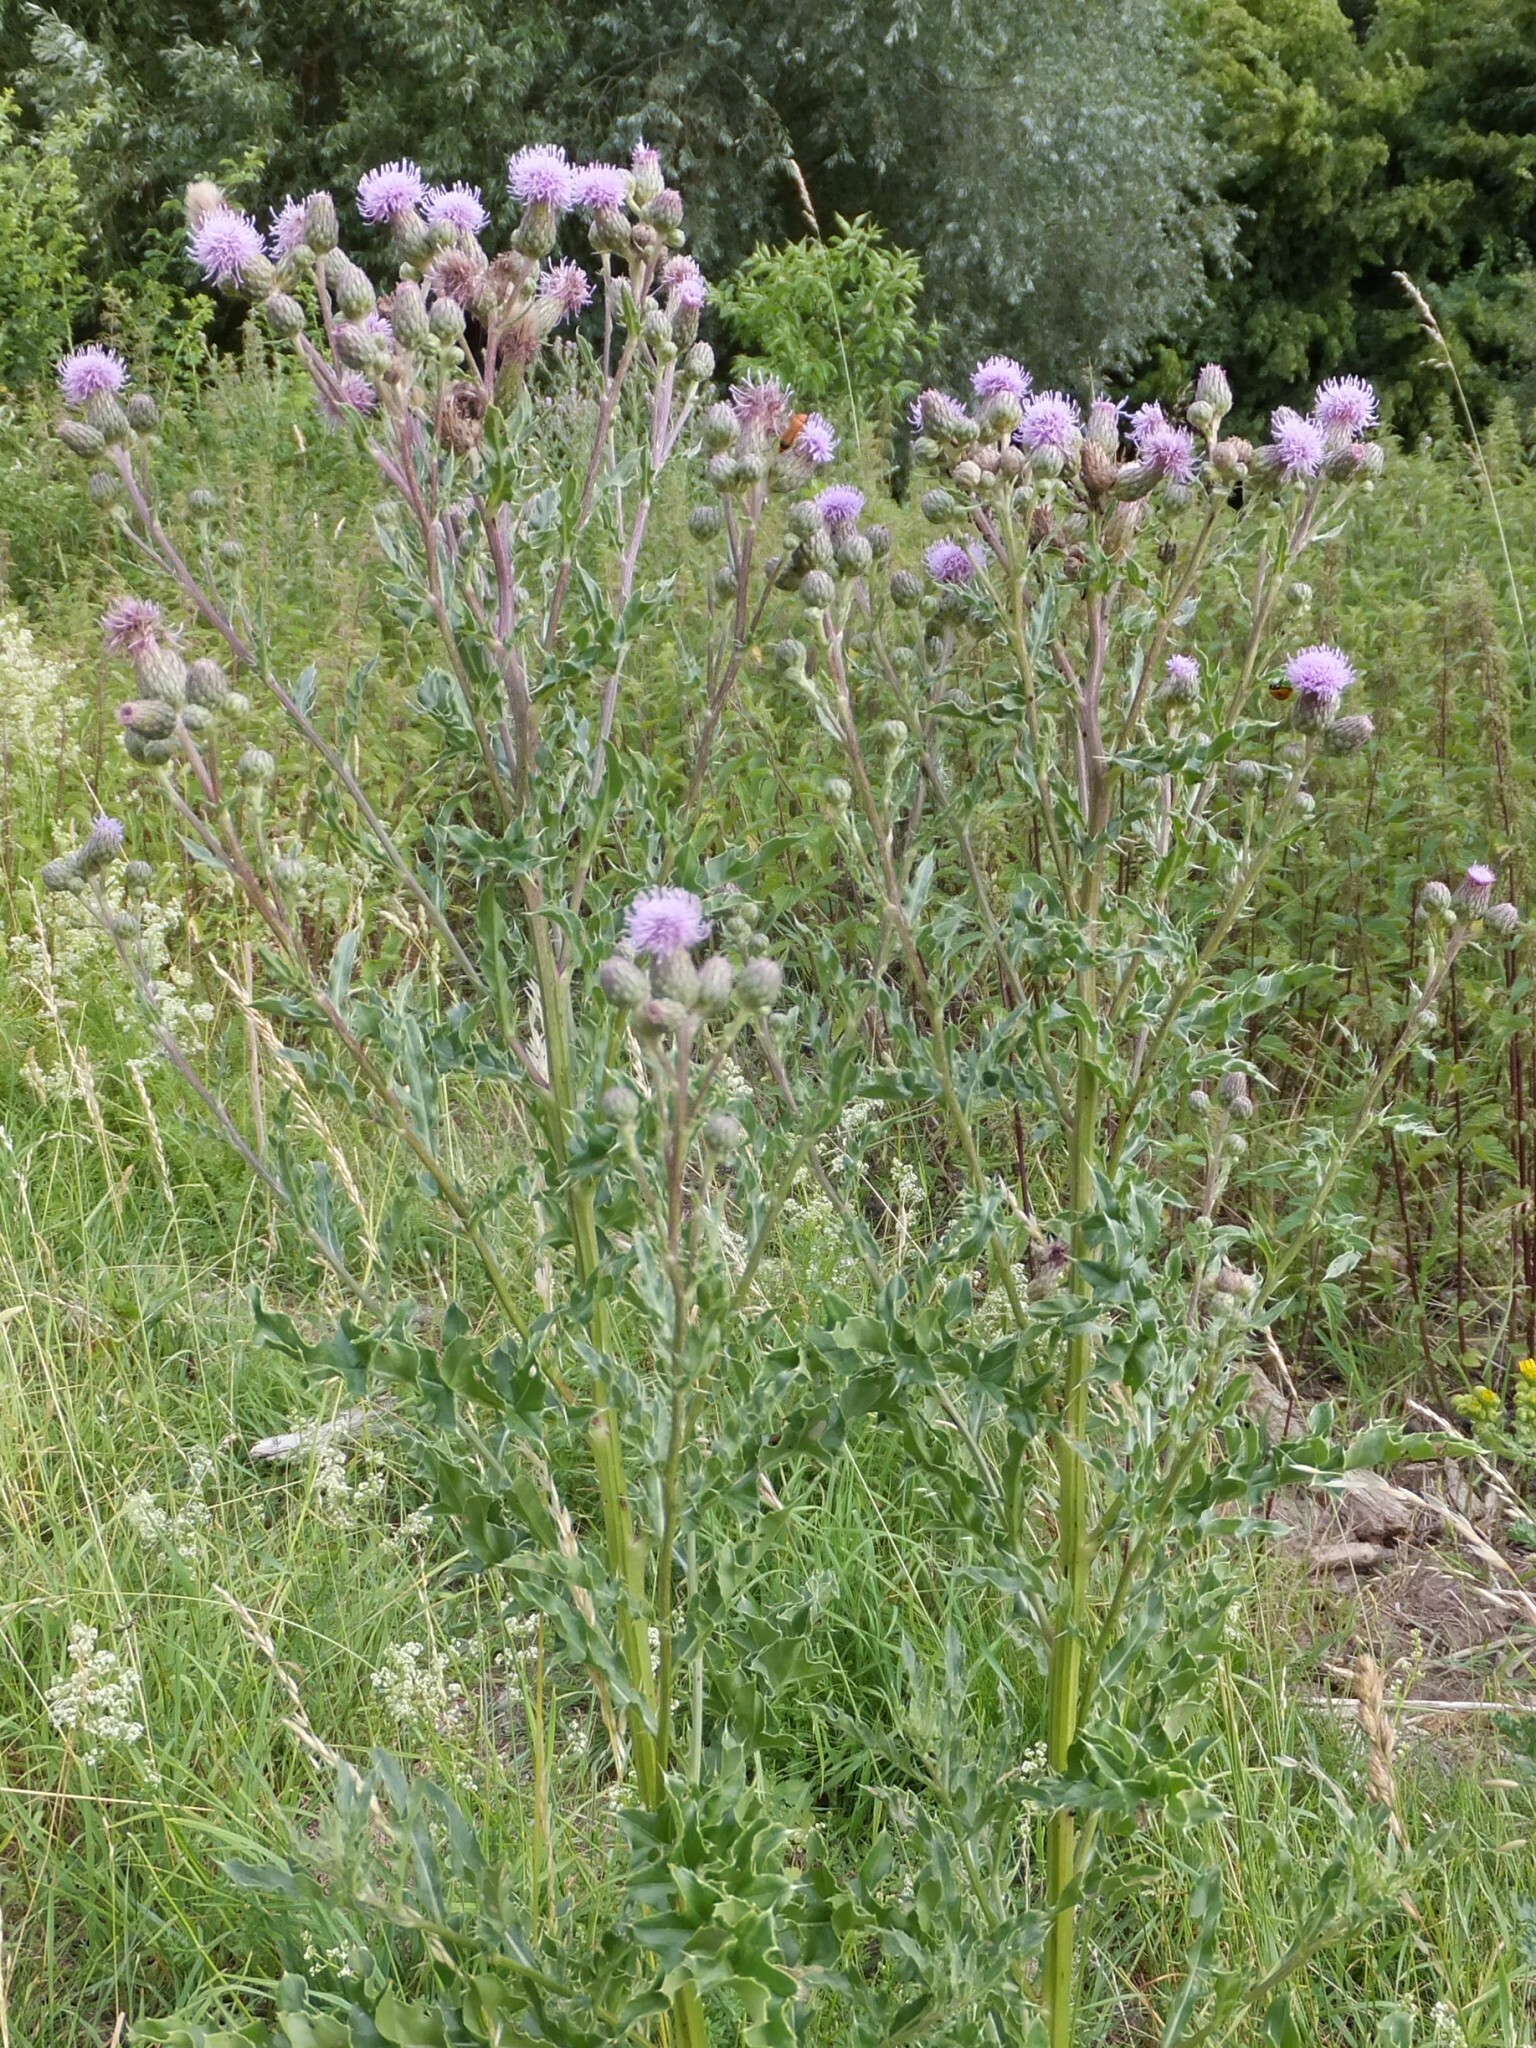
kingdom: Plantae
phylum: Tracheophyta
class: Magnoliopsida
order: Asterales
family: Asteraceae
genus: Cirsium
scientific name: Cirsium arvense
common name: Creeping thistle
